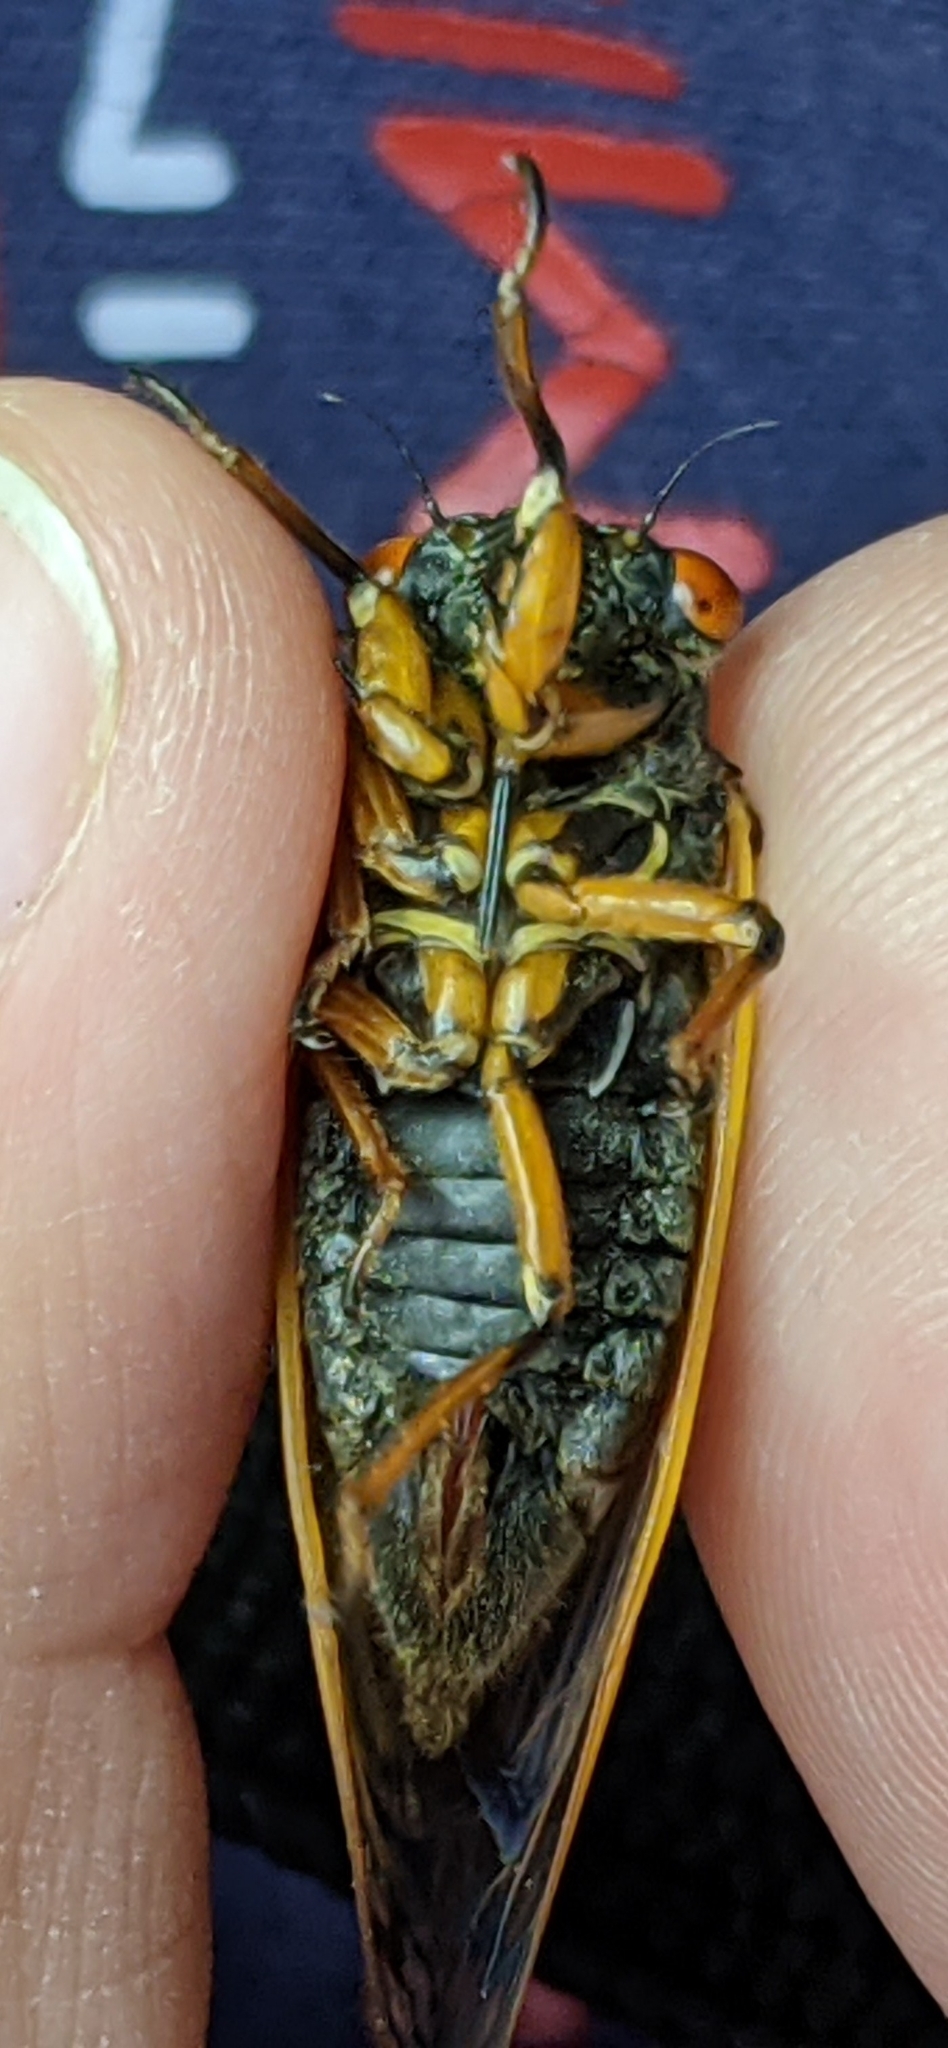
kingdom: Animalia
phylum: Arthropoda
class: Insecta
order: Hemiptera
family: Cicadidae
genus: Magicicada
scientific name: Magicicada cassini
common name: Cassin's 17-year cicada
